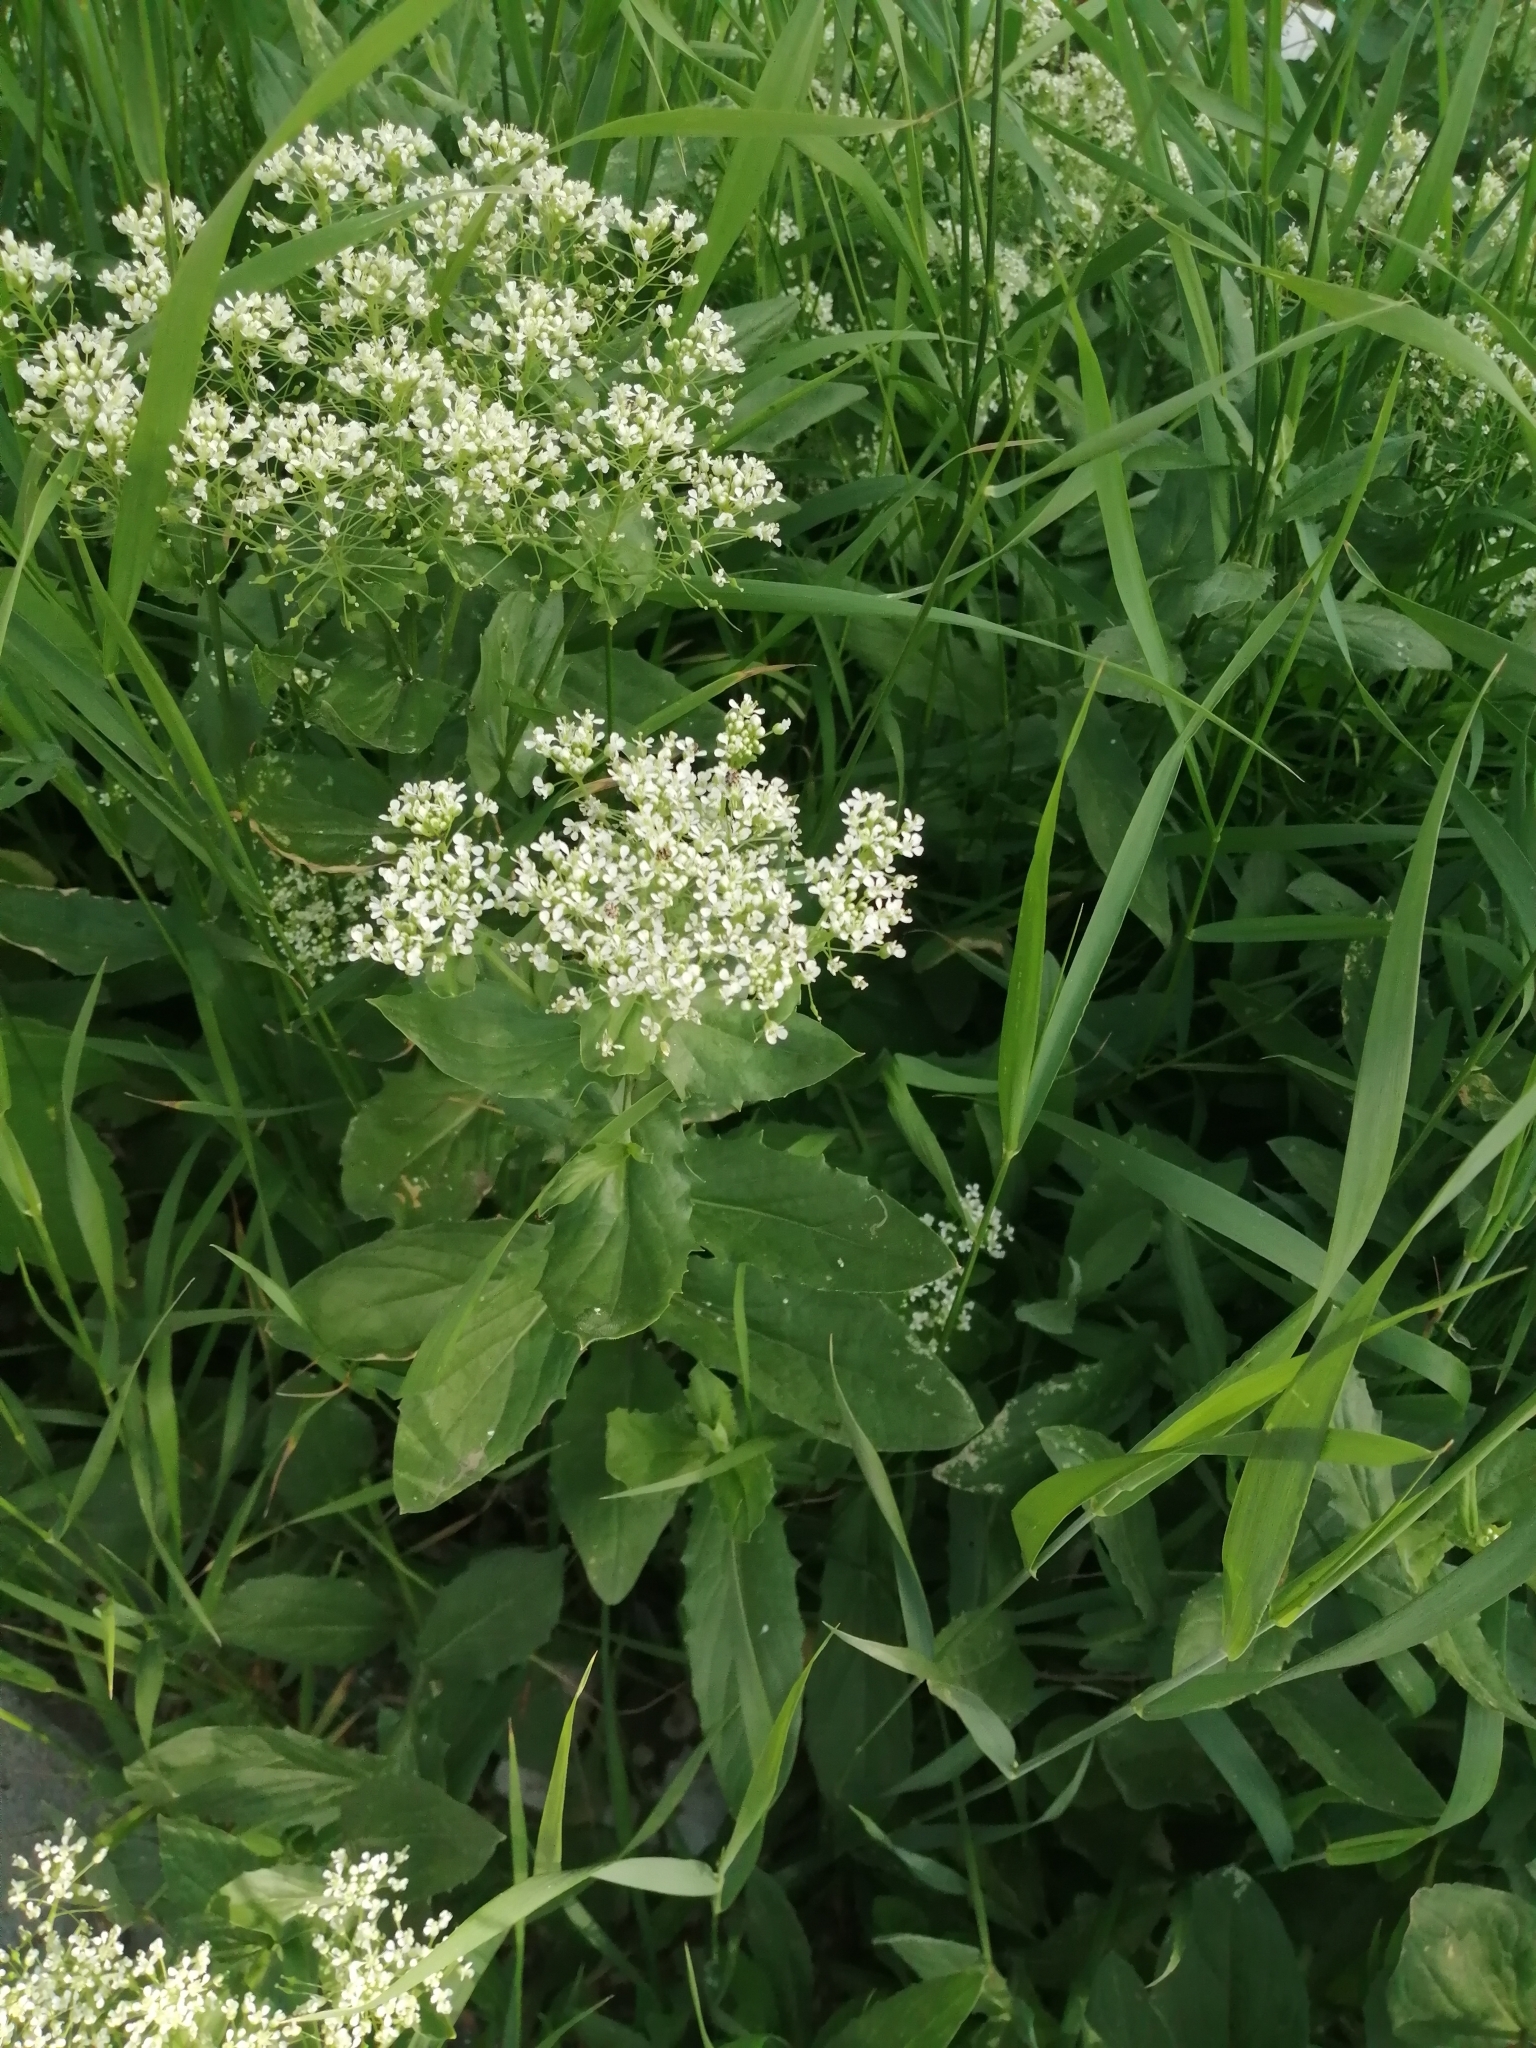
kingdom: Plantae
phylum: Tracheophyta
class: Magnoliopsida
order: Brassicales
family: Brassicaceae
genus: Lepidium
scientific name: Lepidium draba
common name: Hoary cress
